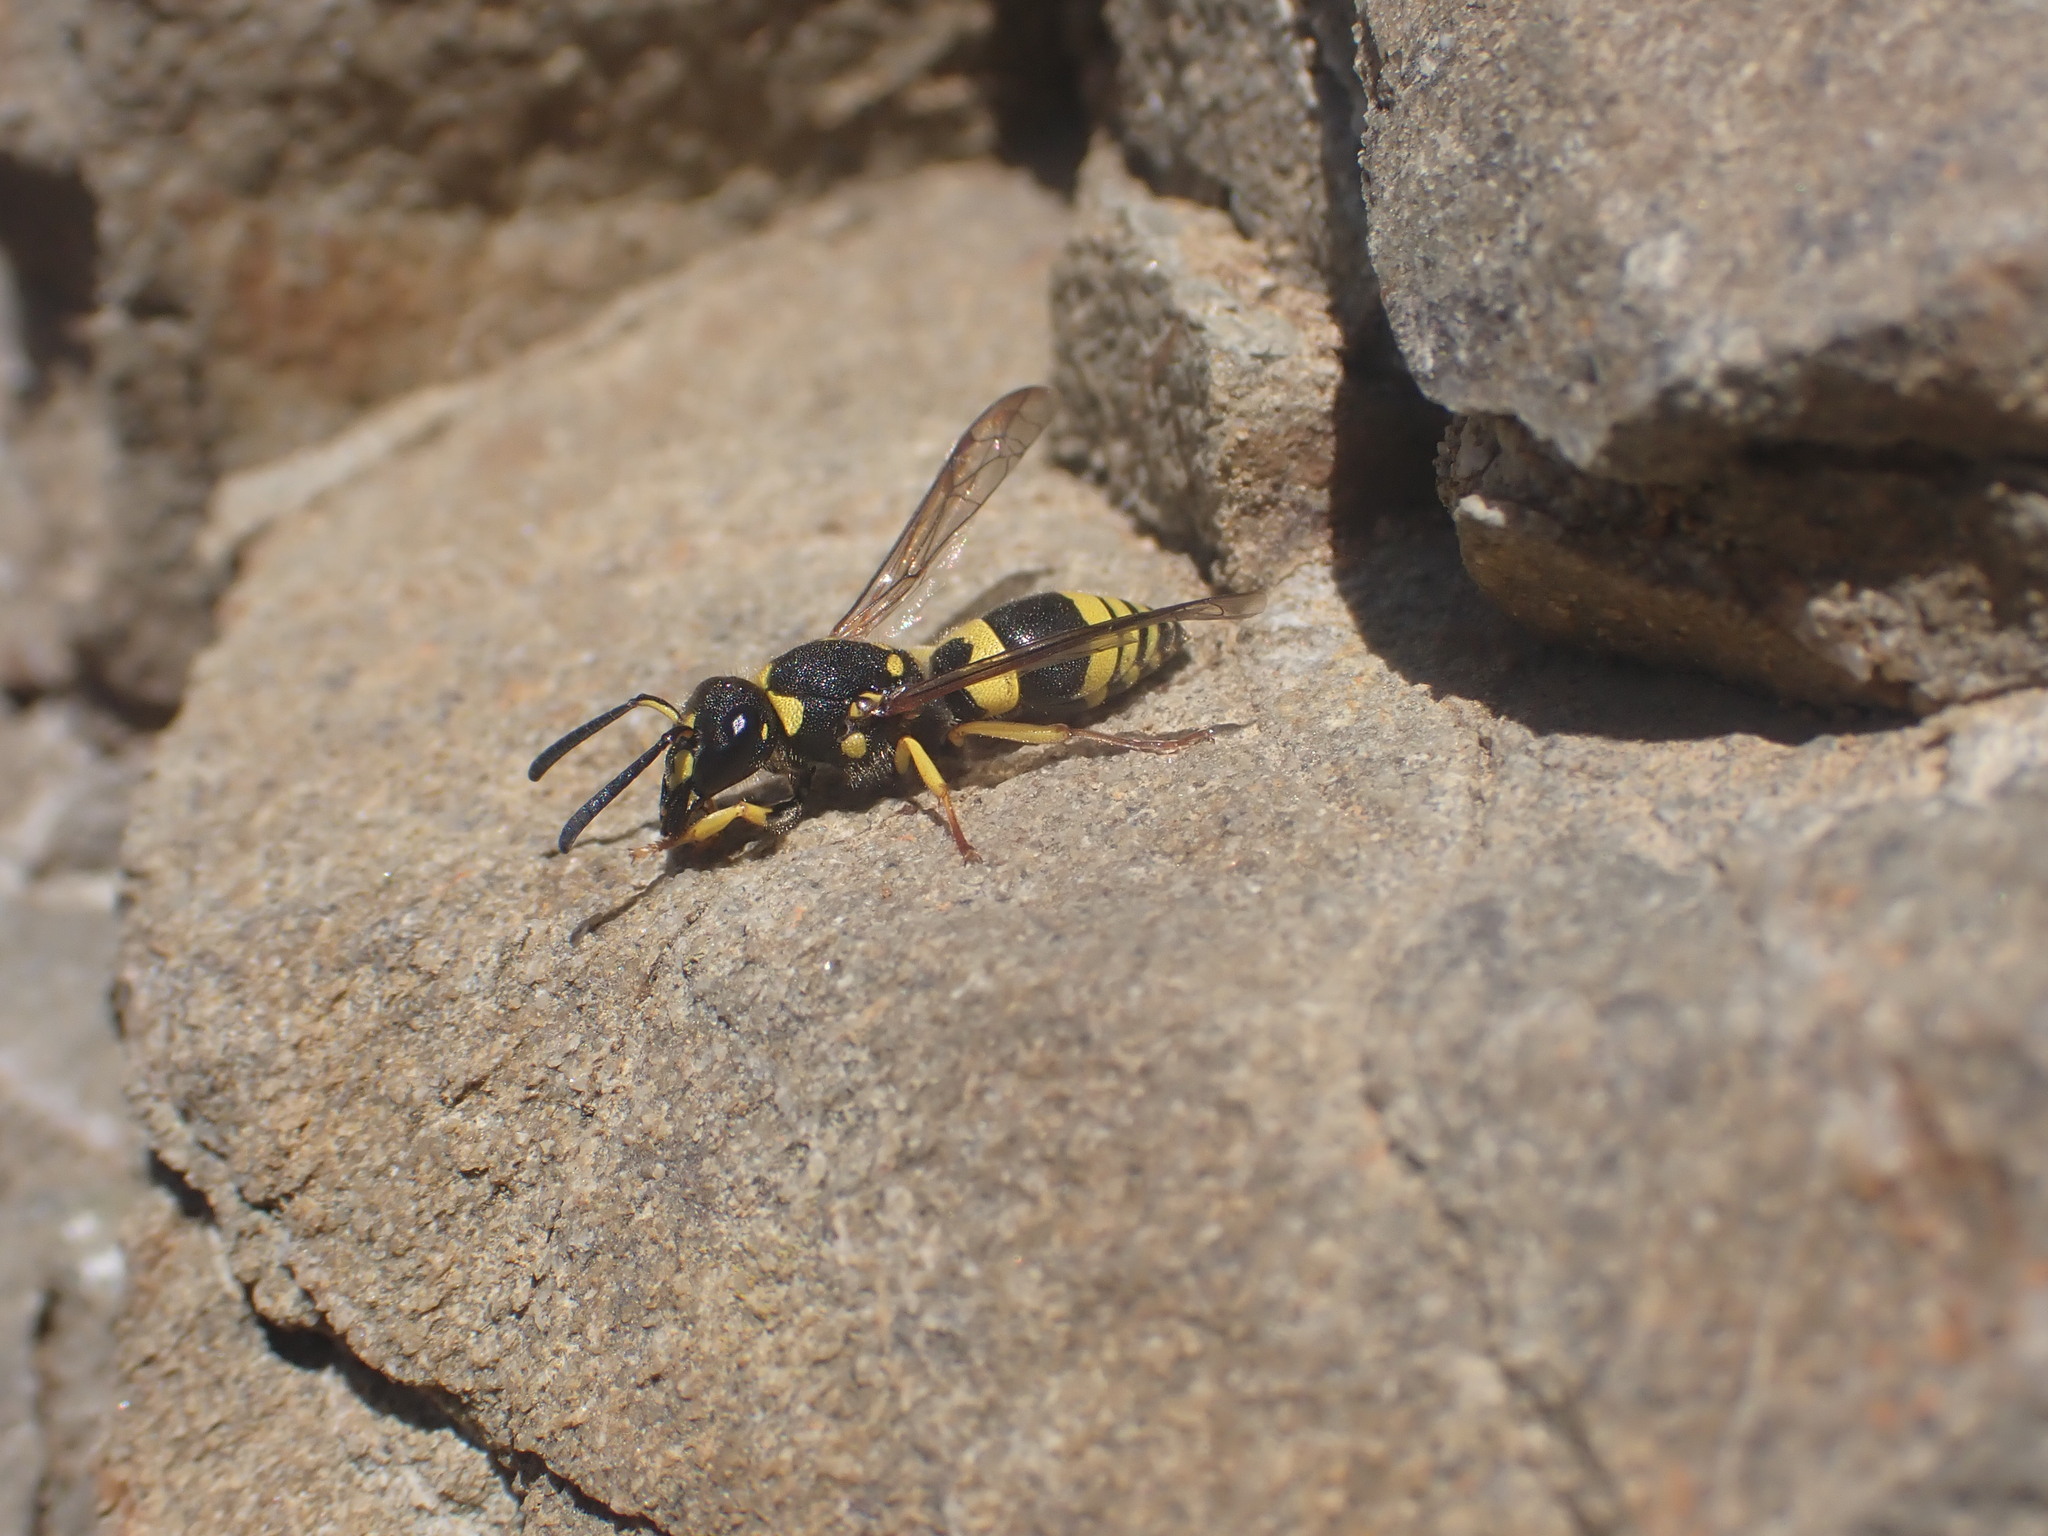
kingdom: Animalia
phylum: Arthropoda
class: Insecta
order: Hymenoptera
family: Vespidae
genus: Ancistrocerus
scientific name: Ancistrocerus gazella
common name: European tube wasp
